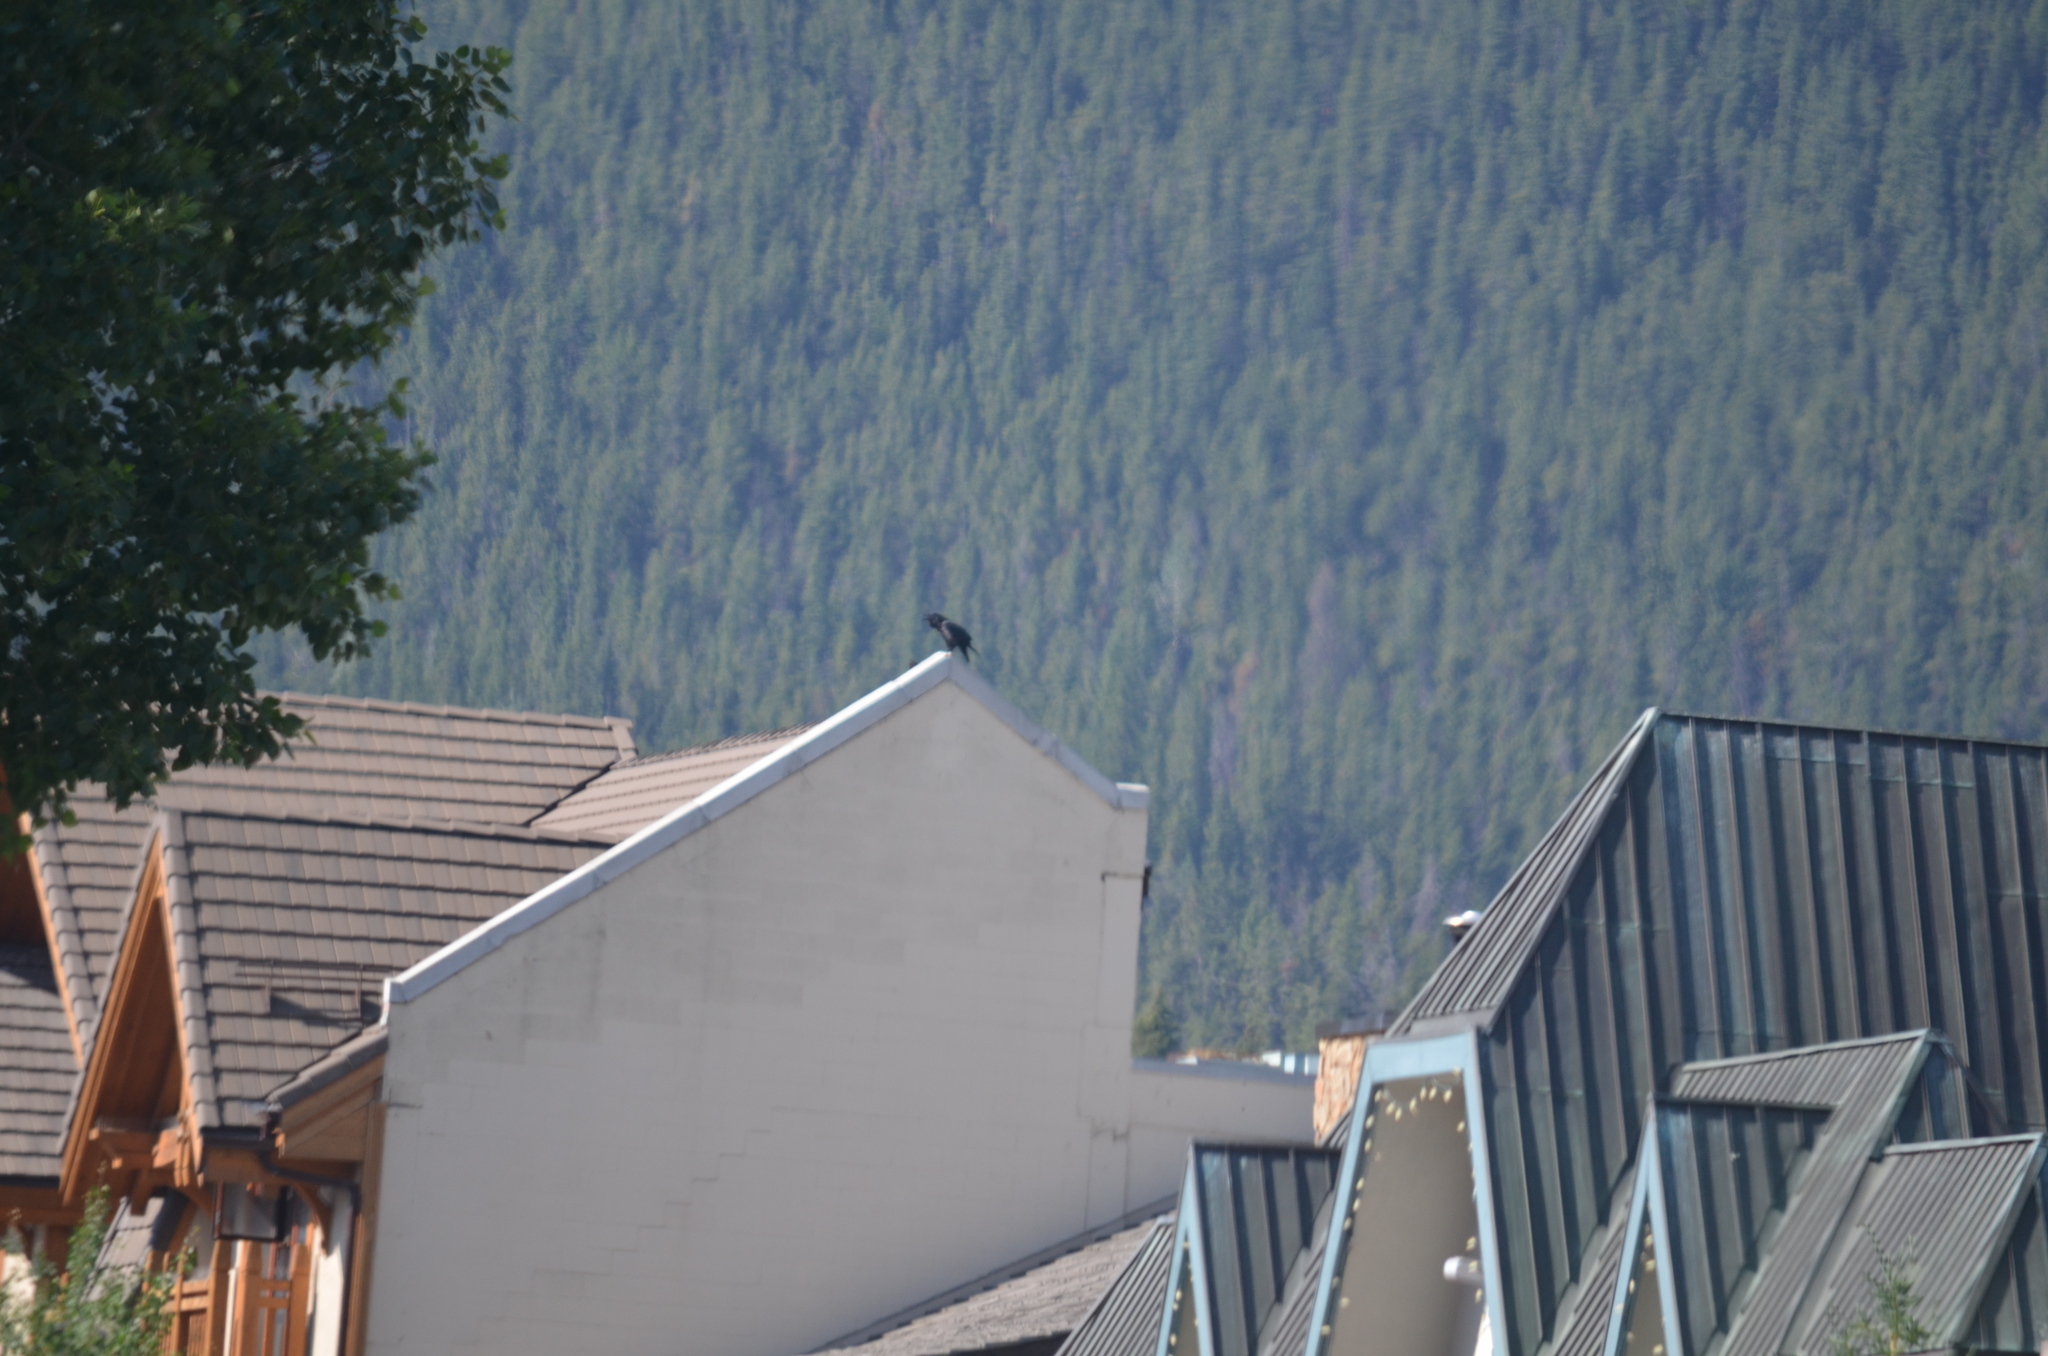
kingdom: Animalia
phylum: Chordata
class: Aves
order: Passeriformes
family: Corvidae
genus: Corvus
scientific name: Corvus brachyrhynchos
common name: American crow
